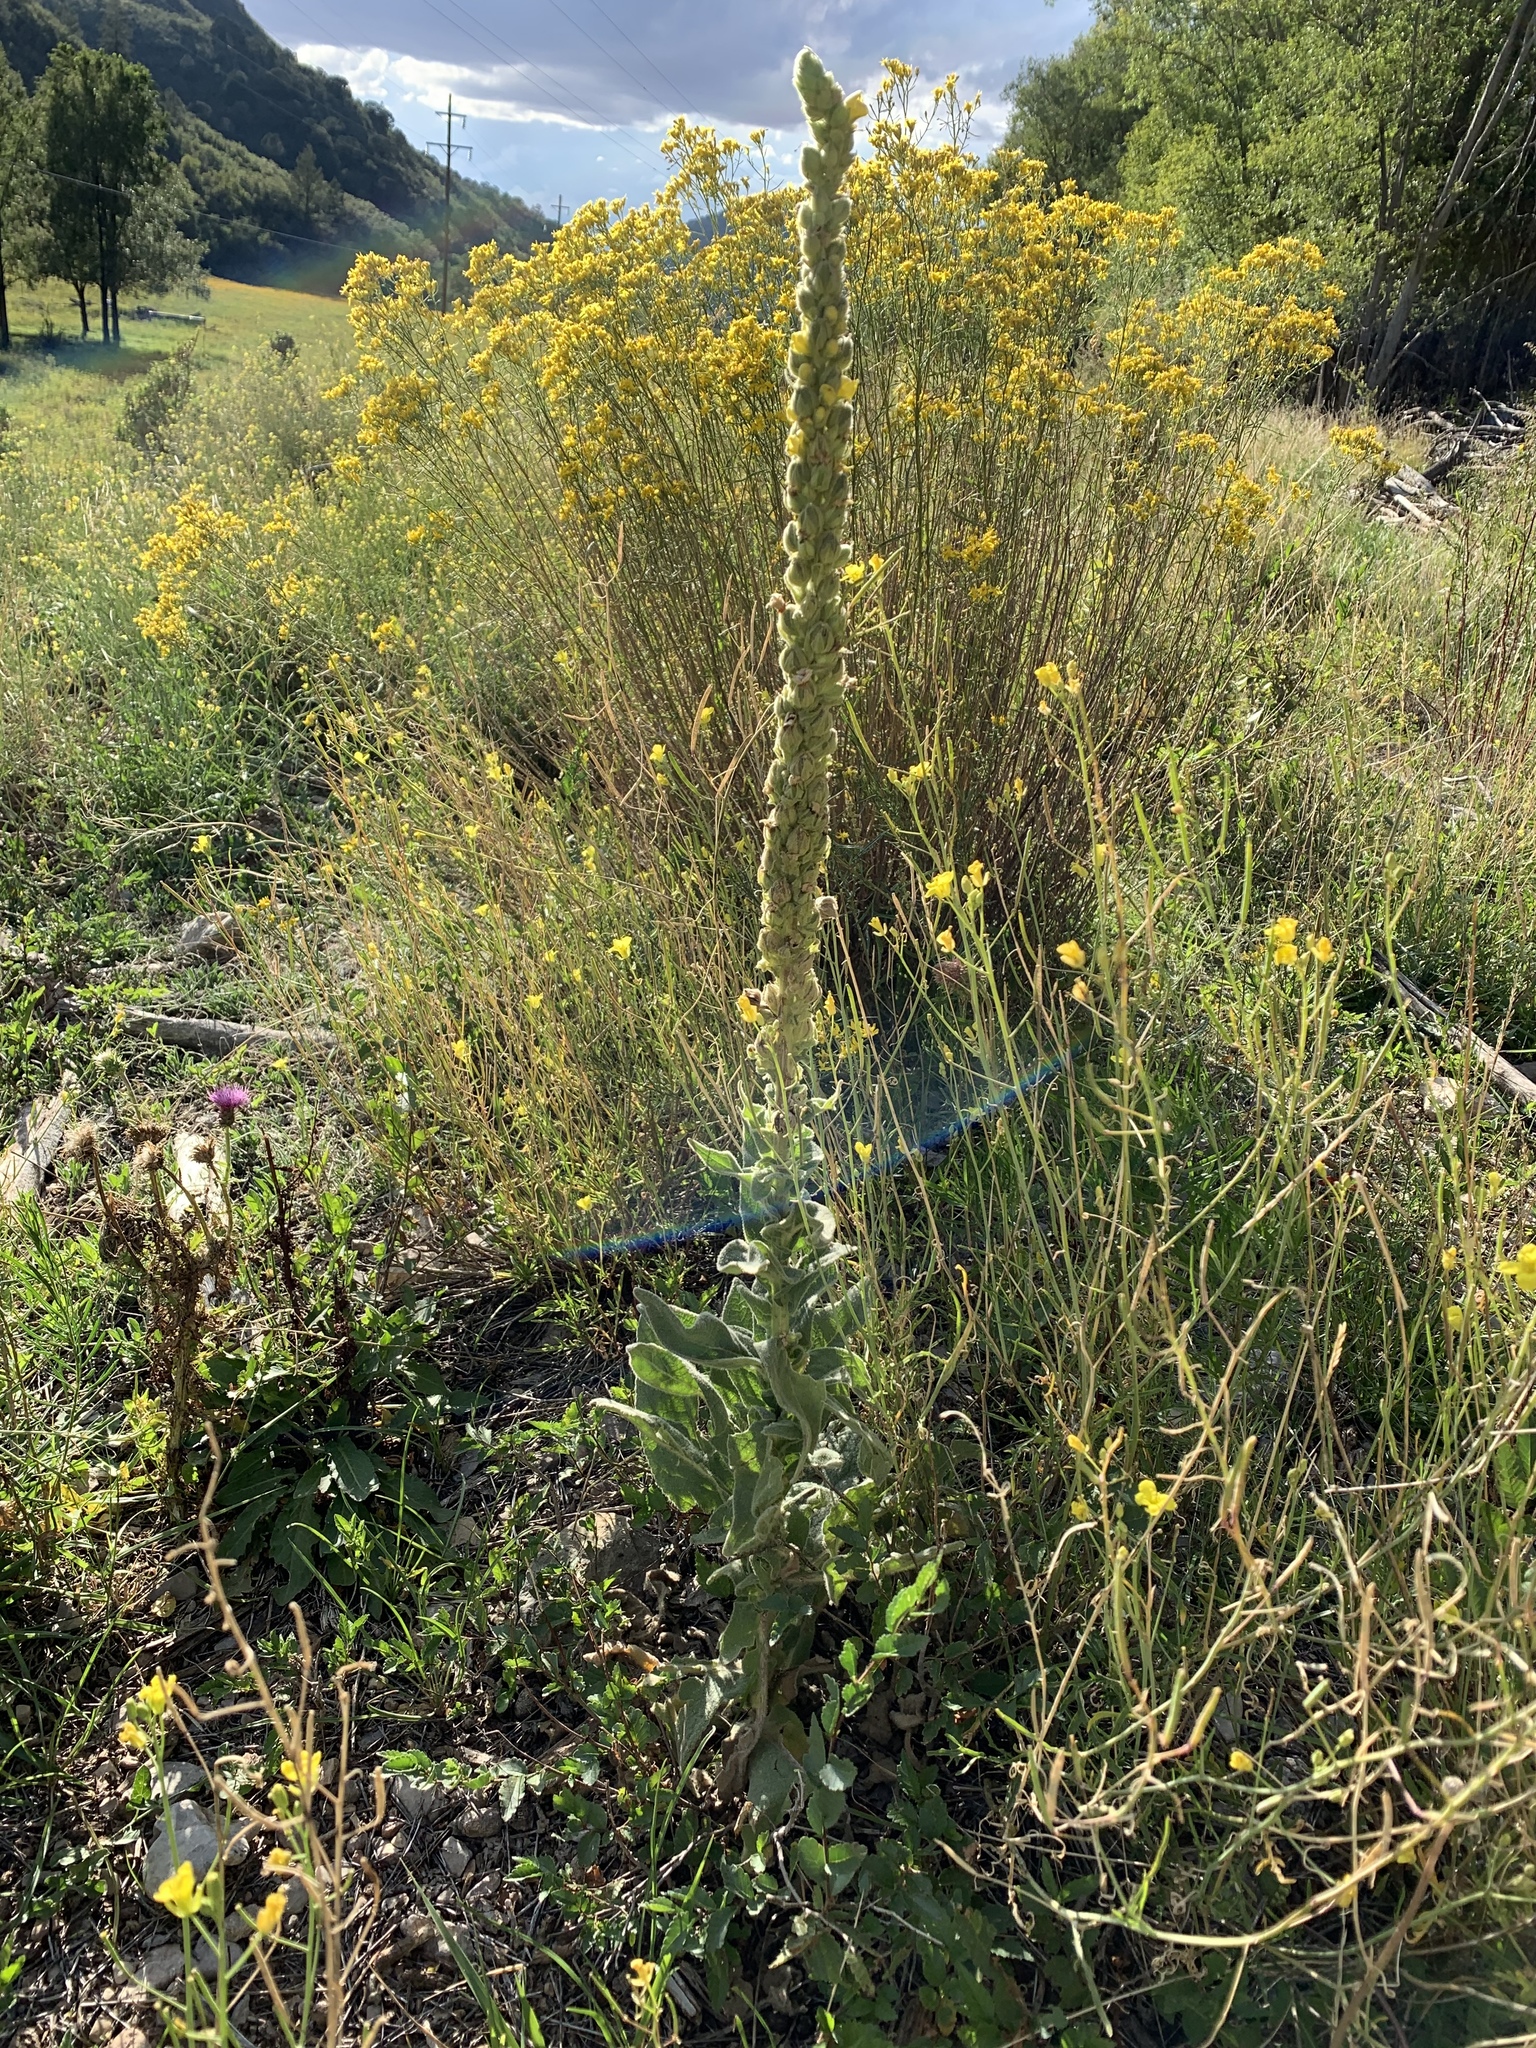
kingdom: Plantae
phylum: Tracheophyta
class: Magnoliopsida
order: Lamiales
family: Scrophulariaceae
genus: Verbascum
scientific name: Verbascum thapsus
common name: Common mullein
